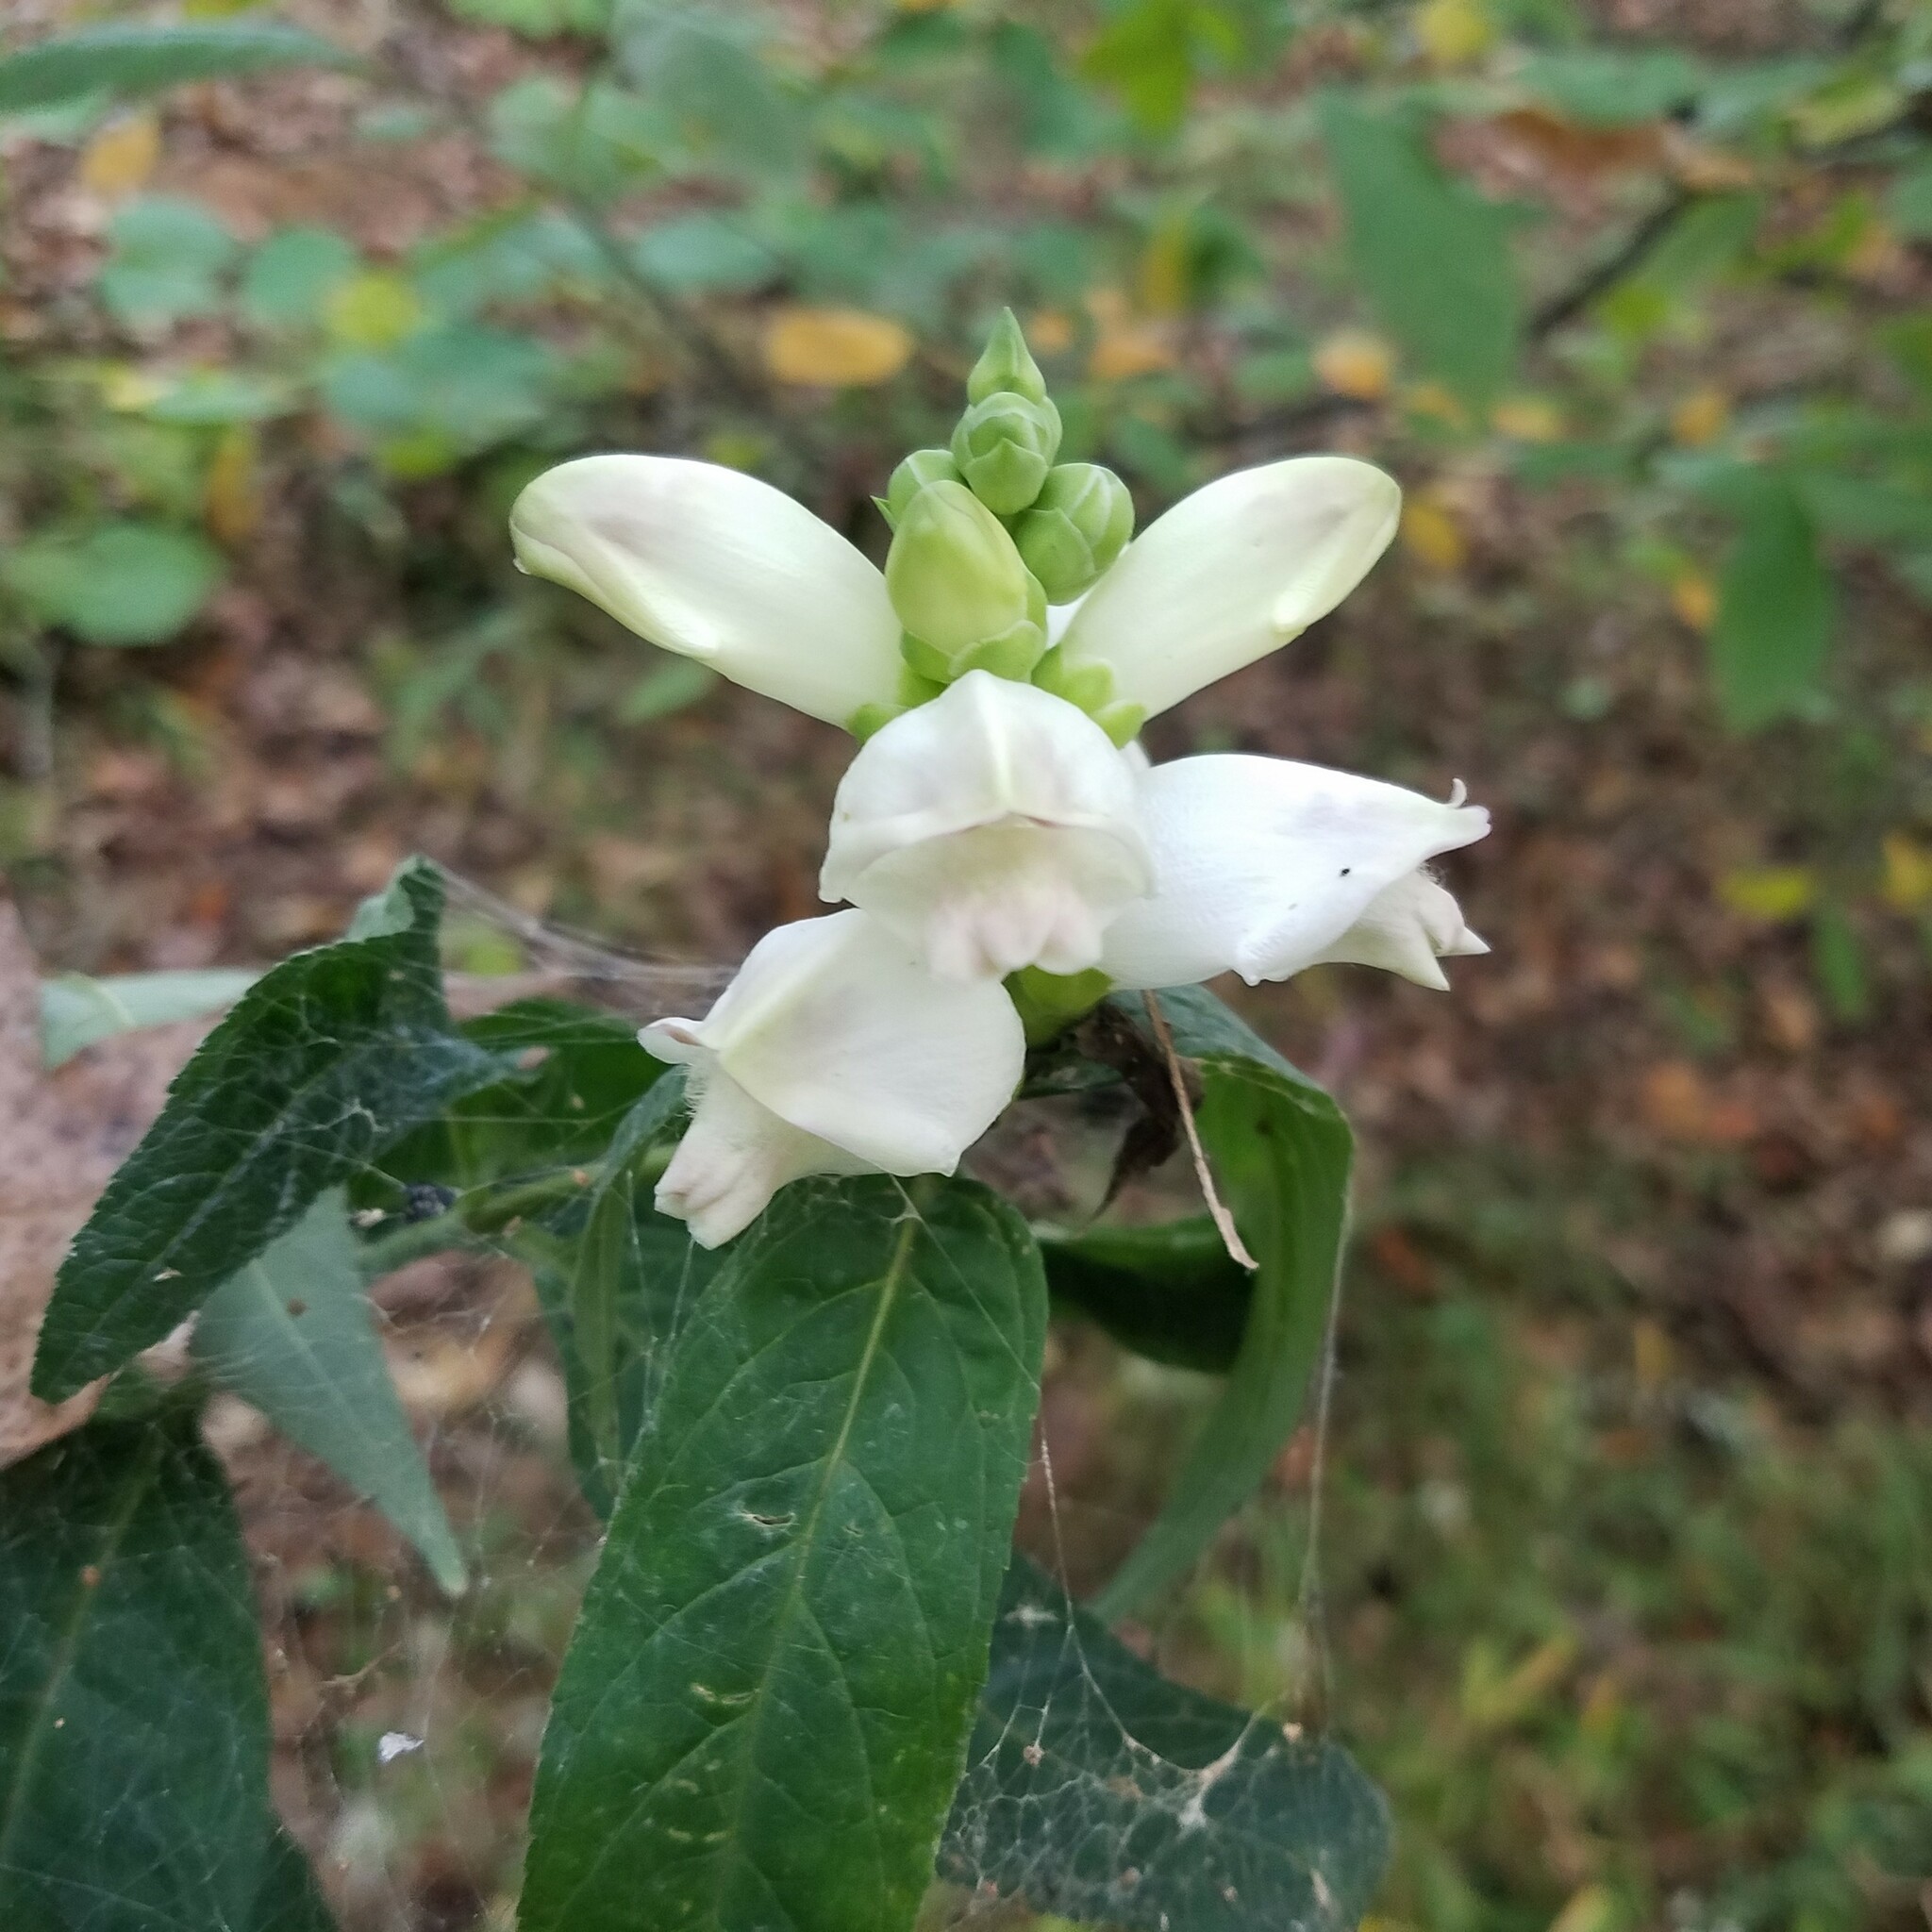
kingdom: Plantae
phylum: Tracheophyta
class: Magnoliopsida
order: Lamiales
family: Plantaginaceae
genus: Chelone
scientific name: Chelone glabra
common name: Snakehead
